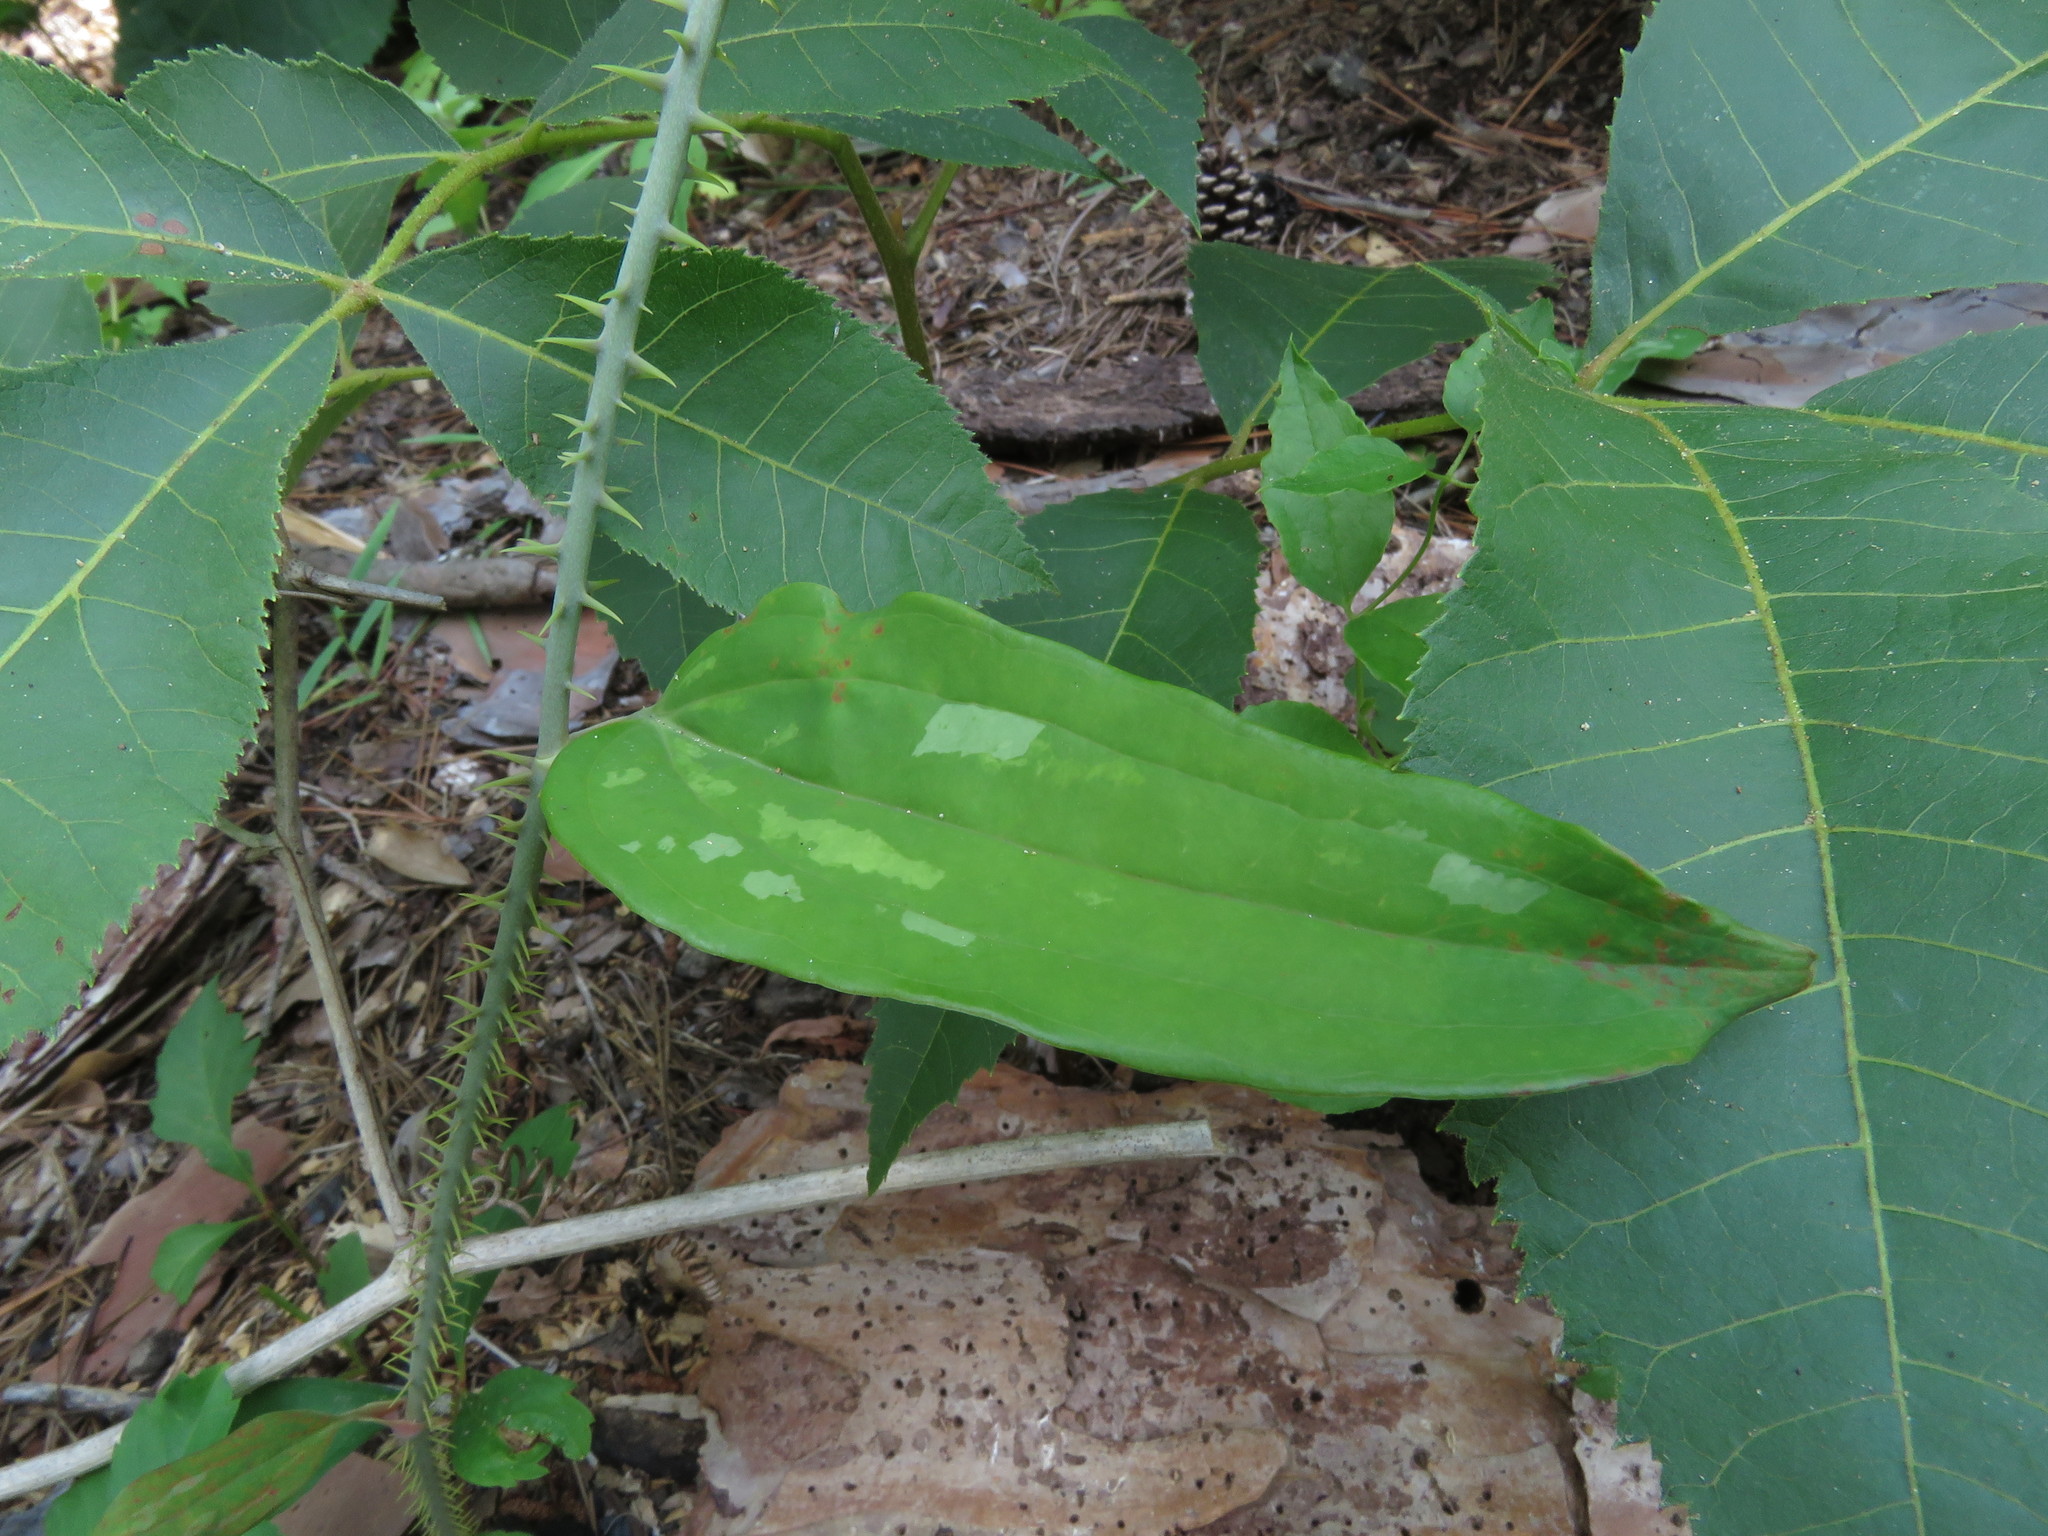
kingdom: Plantae
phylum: Tracheophyta
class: Liliopsida
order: Liliales
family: Smilacaceae
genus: Smilax
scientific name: Smilax bona-nox
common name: Catbrier
